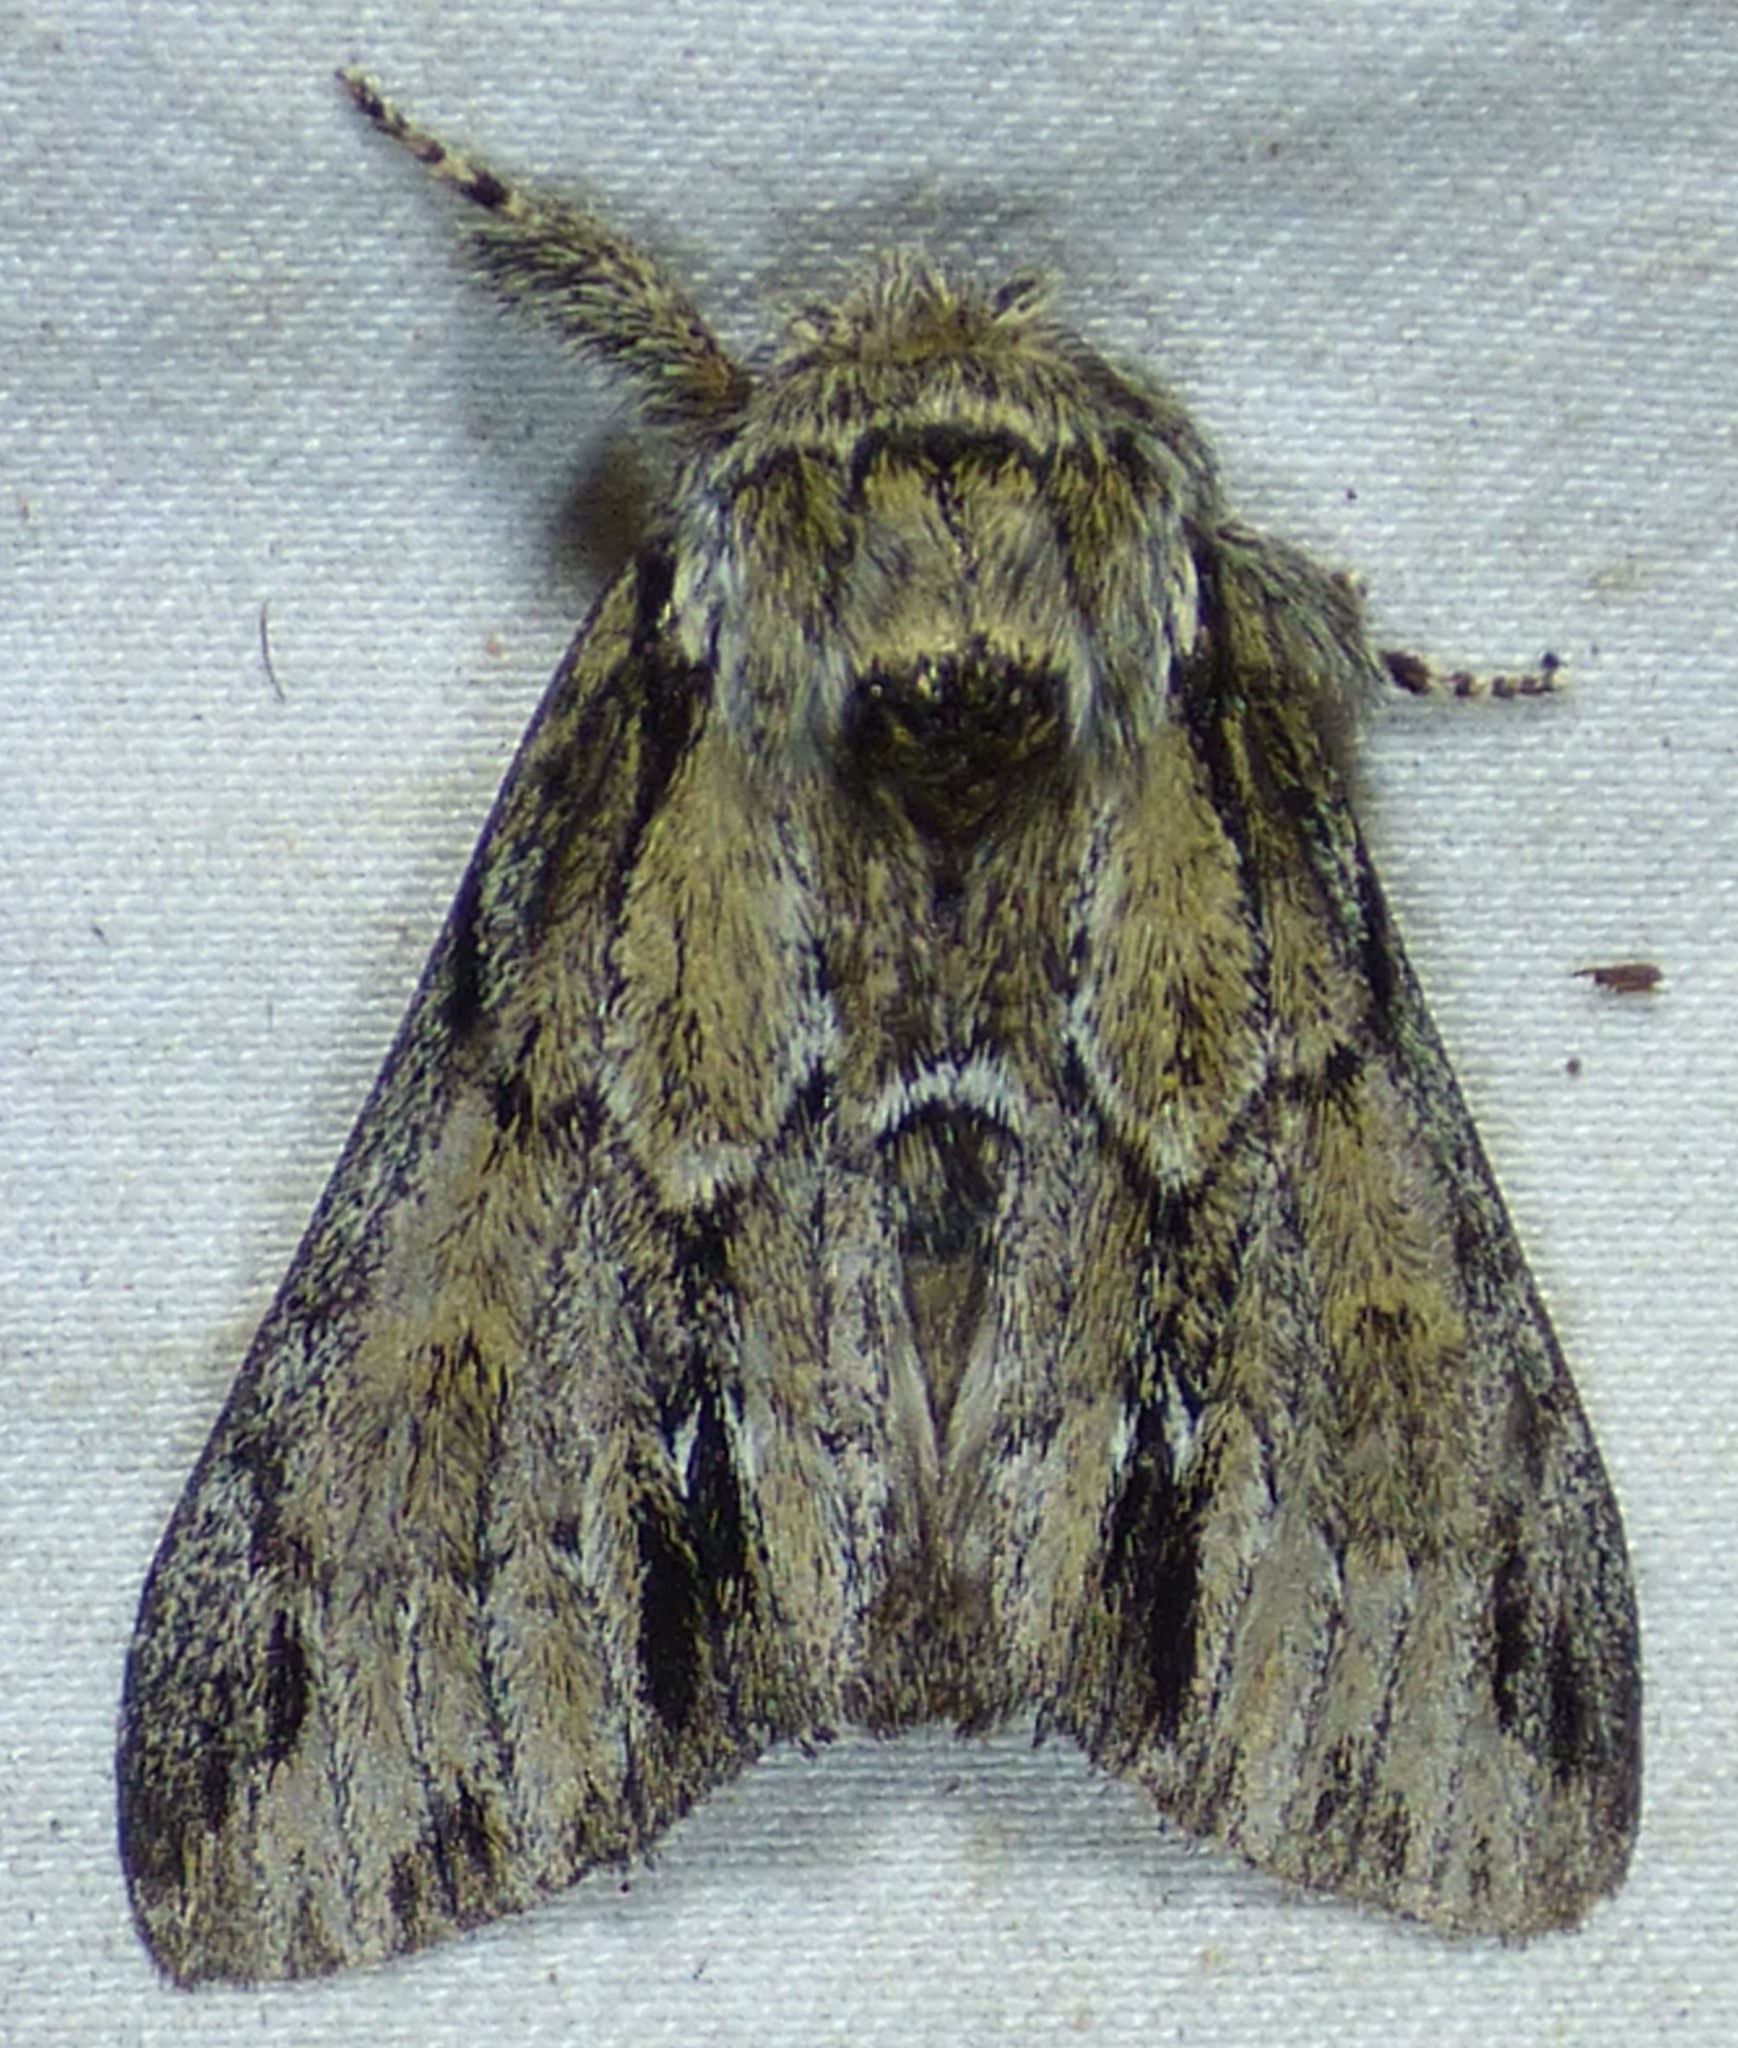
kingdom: Animalia
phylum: Arthropoda
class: Insecta
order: Lepidoptera
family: Notodontidae
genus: Paraeschra
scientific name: Paraeschra georgica
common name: Georgian prominent
